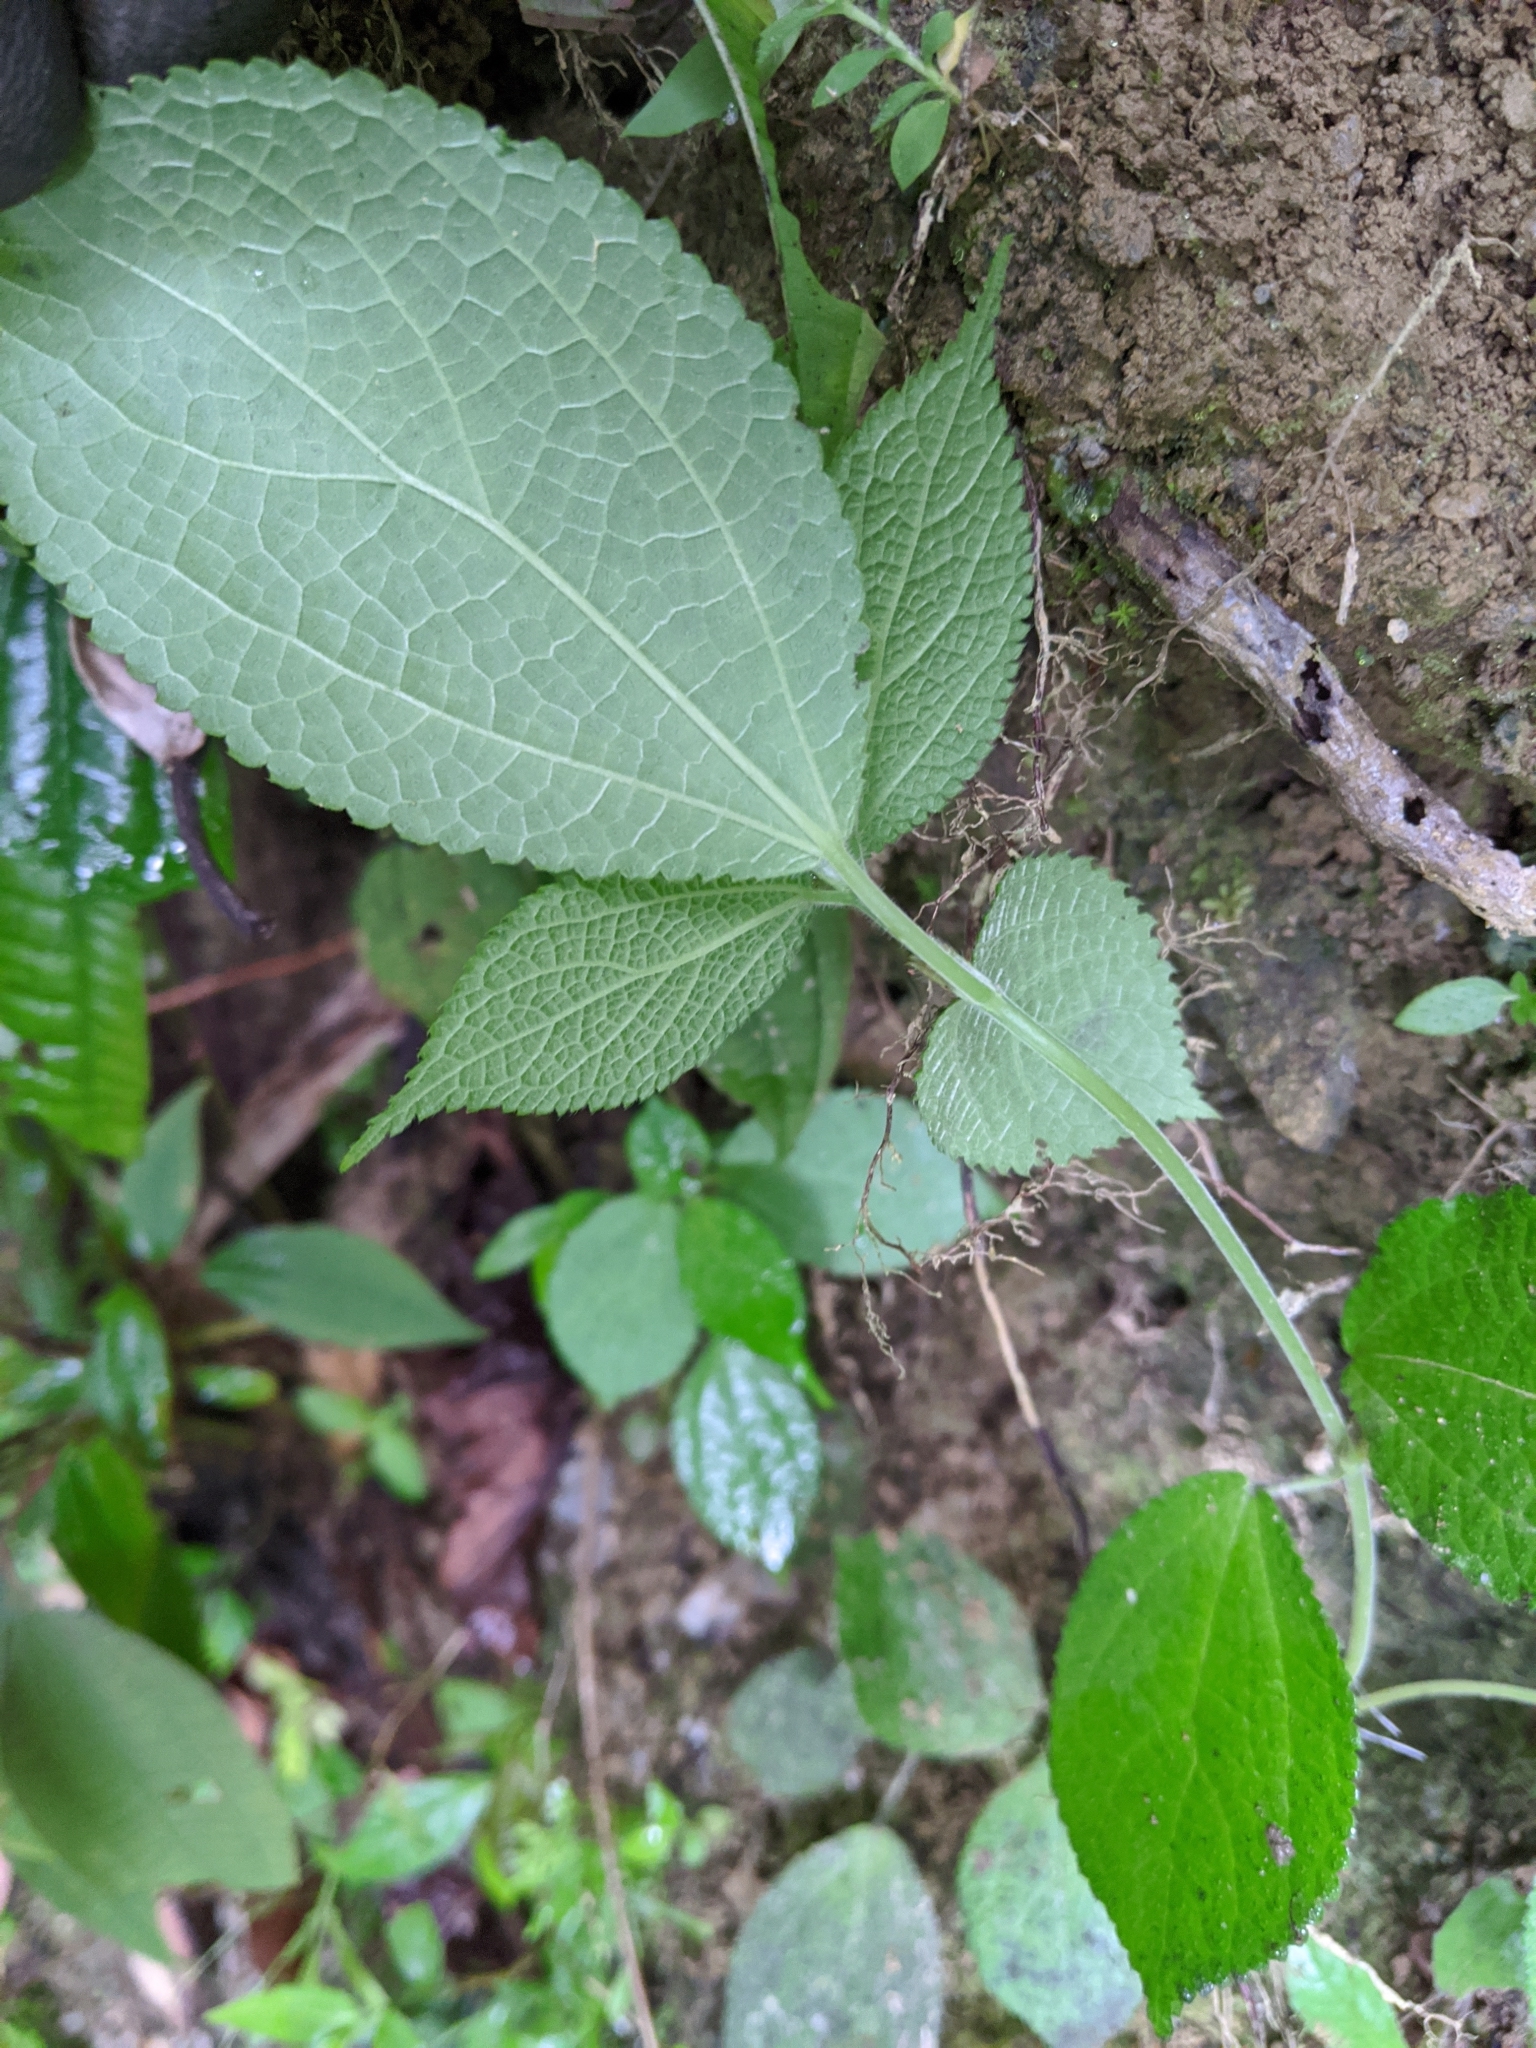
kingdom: Plantae
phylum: Tracheophyta
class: Magnoliopsida
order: Rosales
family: Urticaceae
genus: Boehmeria
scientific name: Boehmeria pilosiuscula
